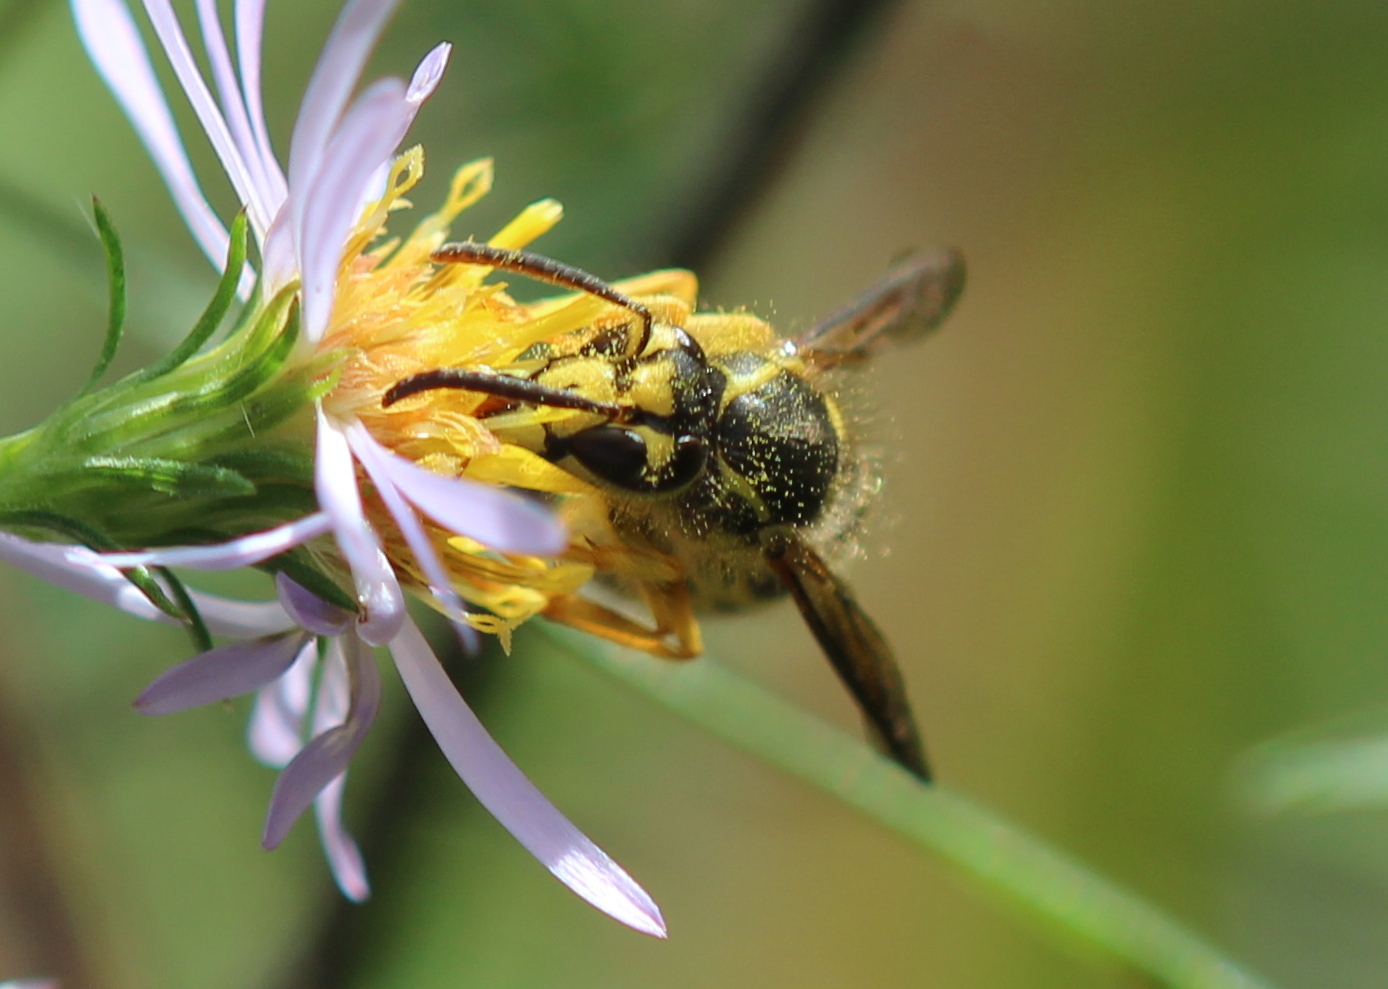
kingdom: Animalia
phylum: Arthropoda
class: Insecta
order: Hymenoptera
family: Vespidae
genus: Dolichovespula
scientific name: Dolichovespula arenaria
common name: Aerial yellowjacket
